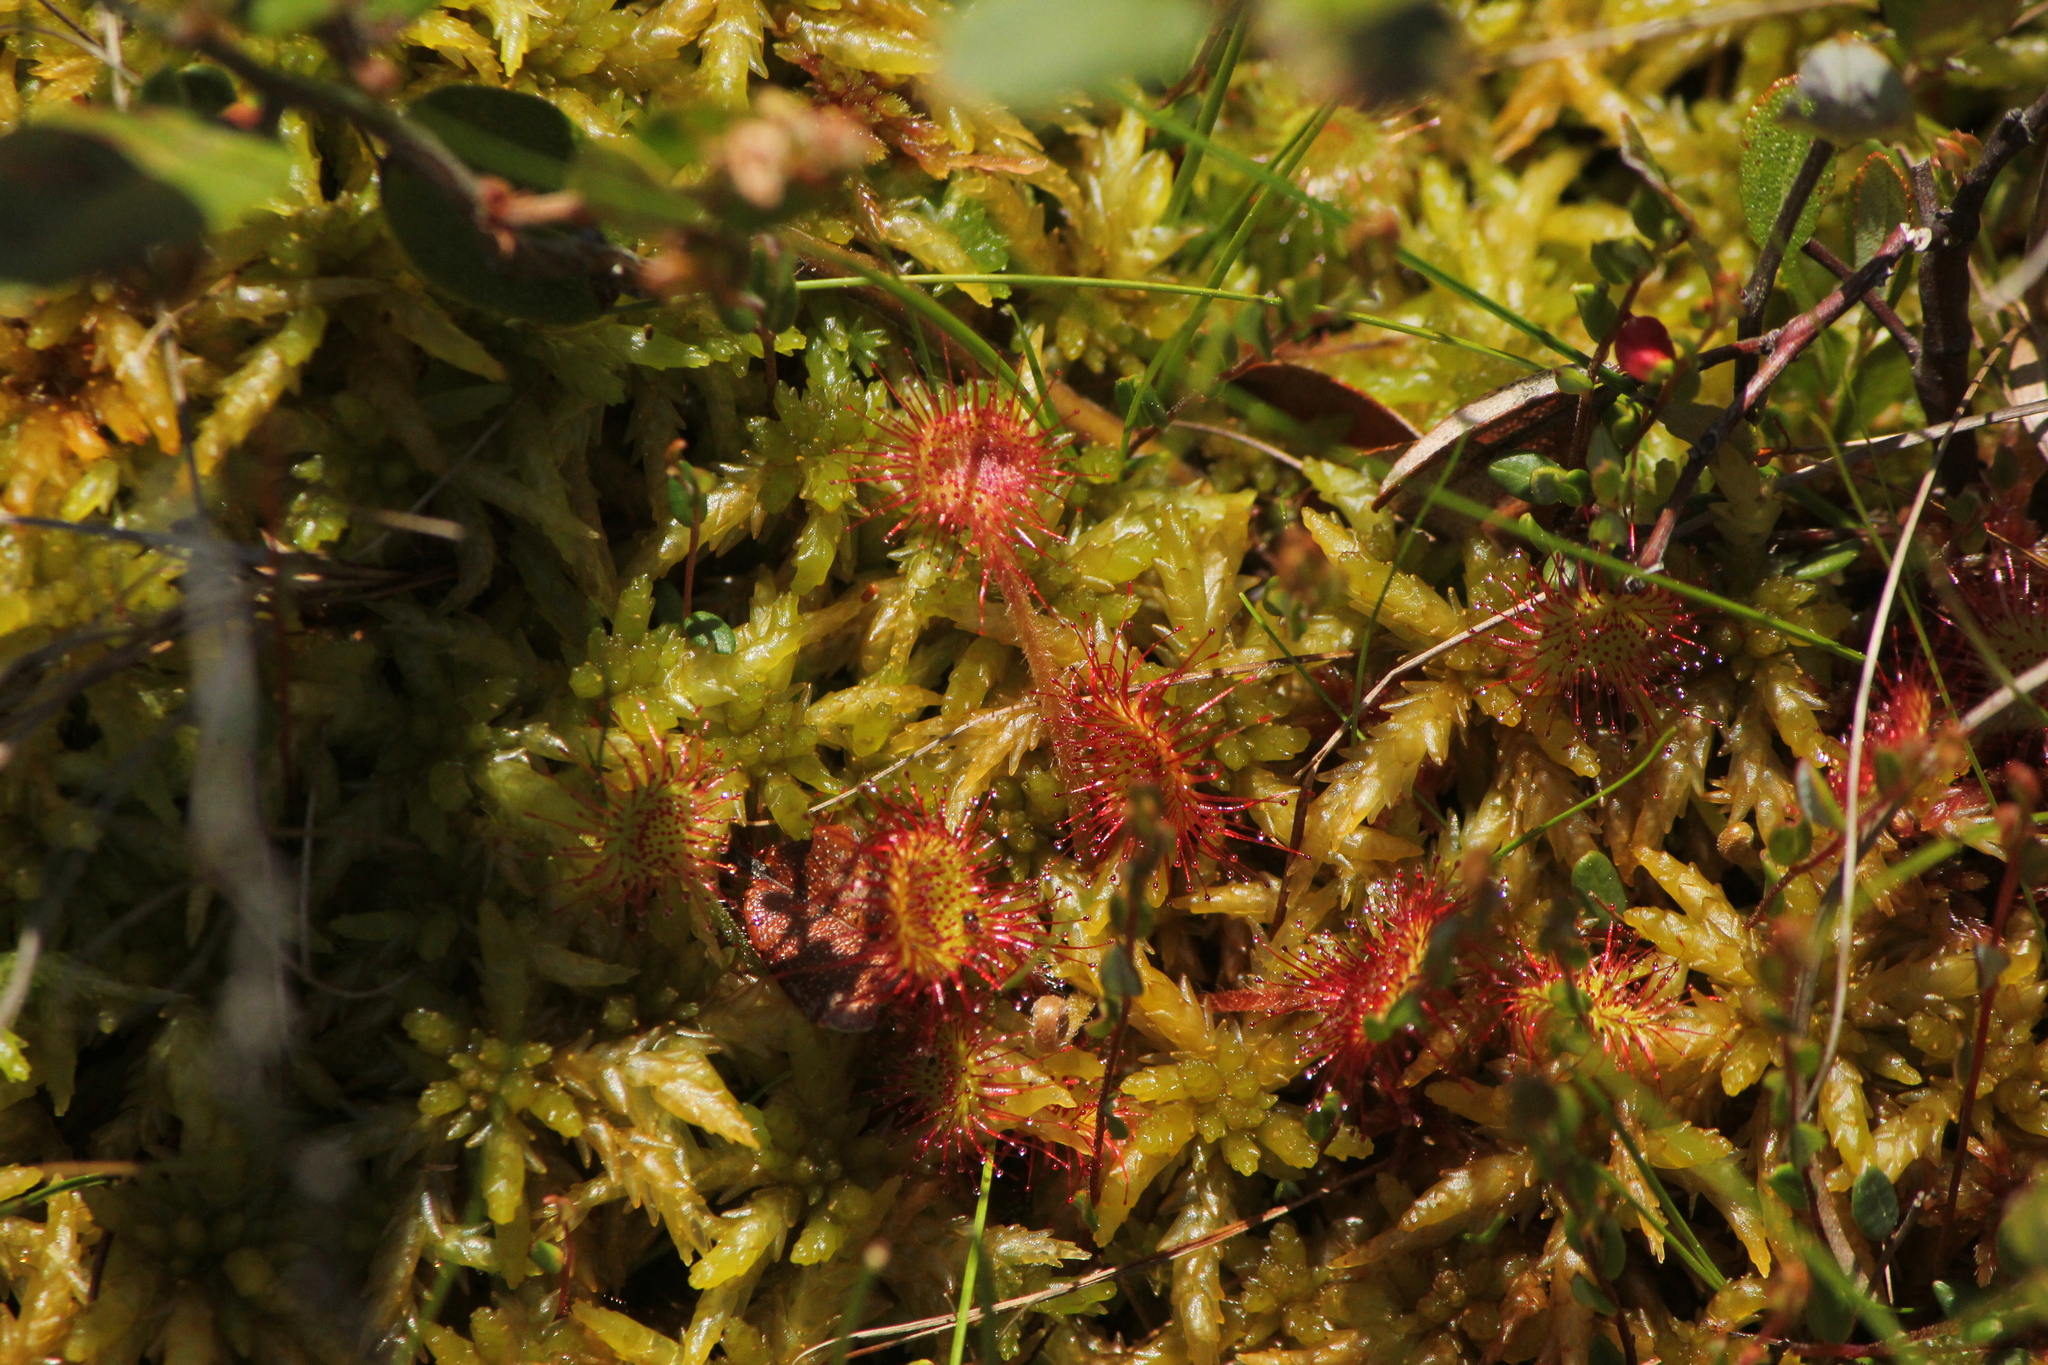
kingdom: Plantae
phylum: Tracheophyta
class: Magnoliopsida
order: Caryophyllales
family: Droseraceae
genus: Drosera
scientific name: Drosera rotundifolia
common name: Round-leaved sundew
